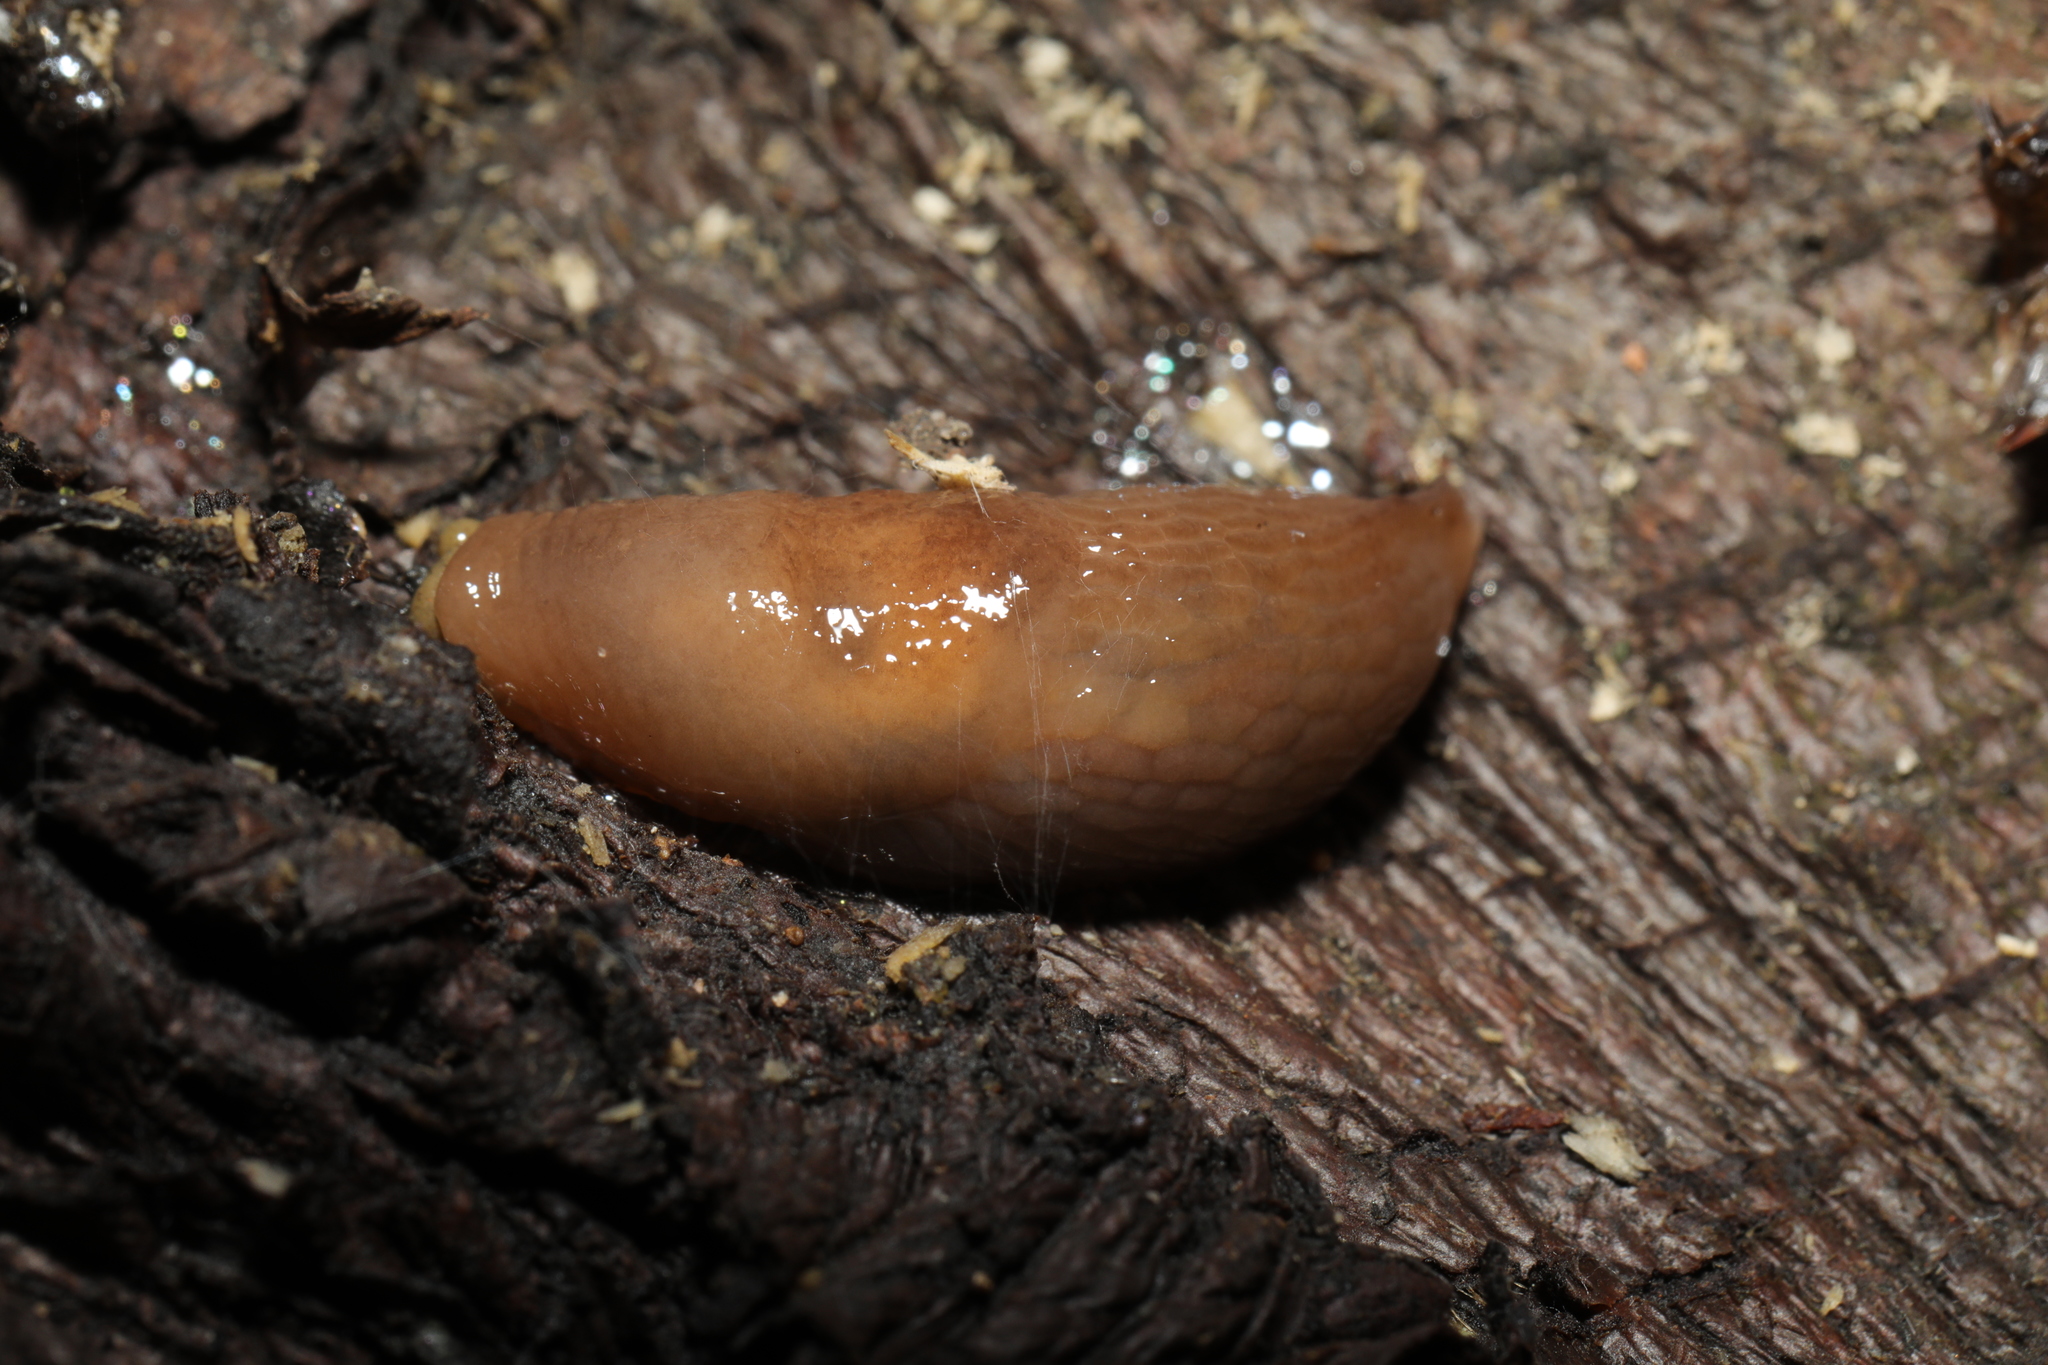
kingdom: Animalia
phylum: Mollusca
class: Gastropoda
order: Stylommatophora
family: Agriolimacidae
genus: Deroceras
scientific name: Deroceras reticulatum
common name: Gray field slug
